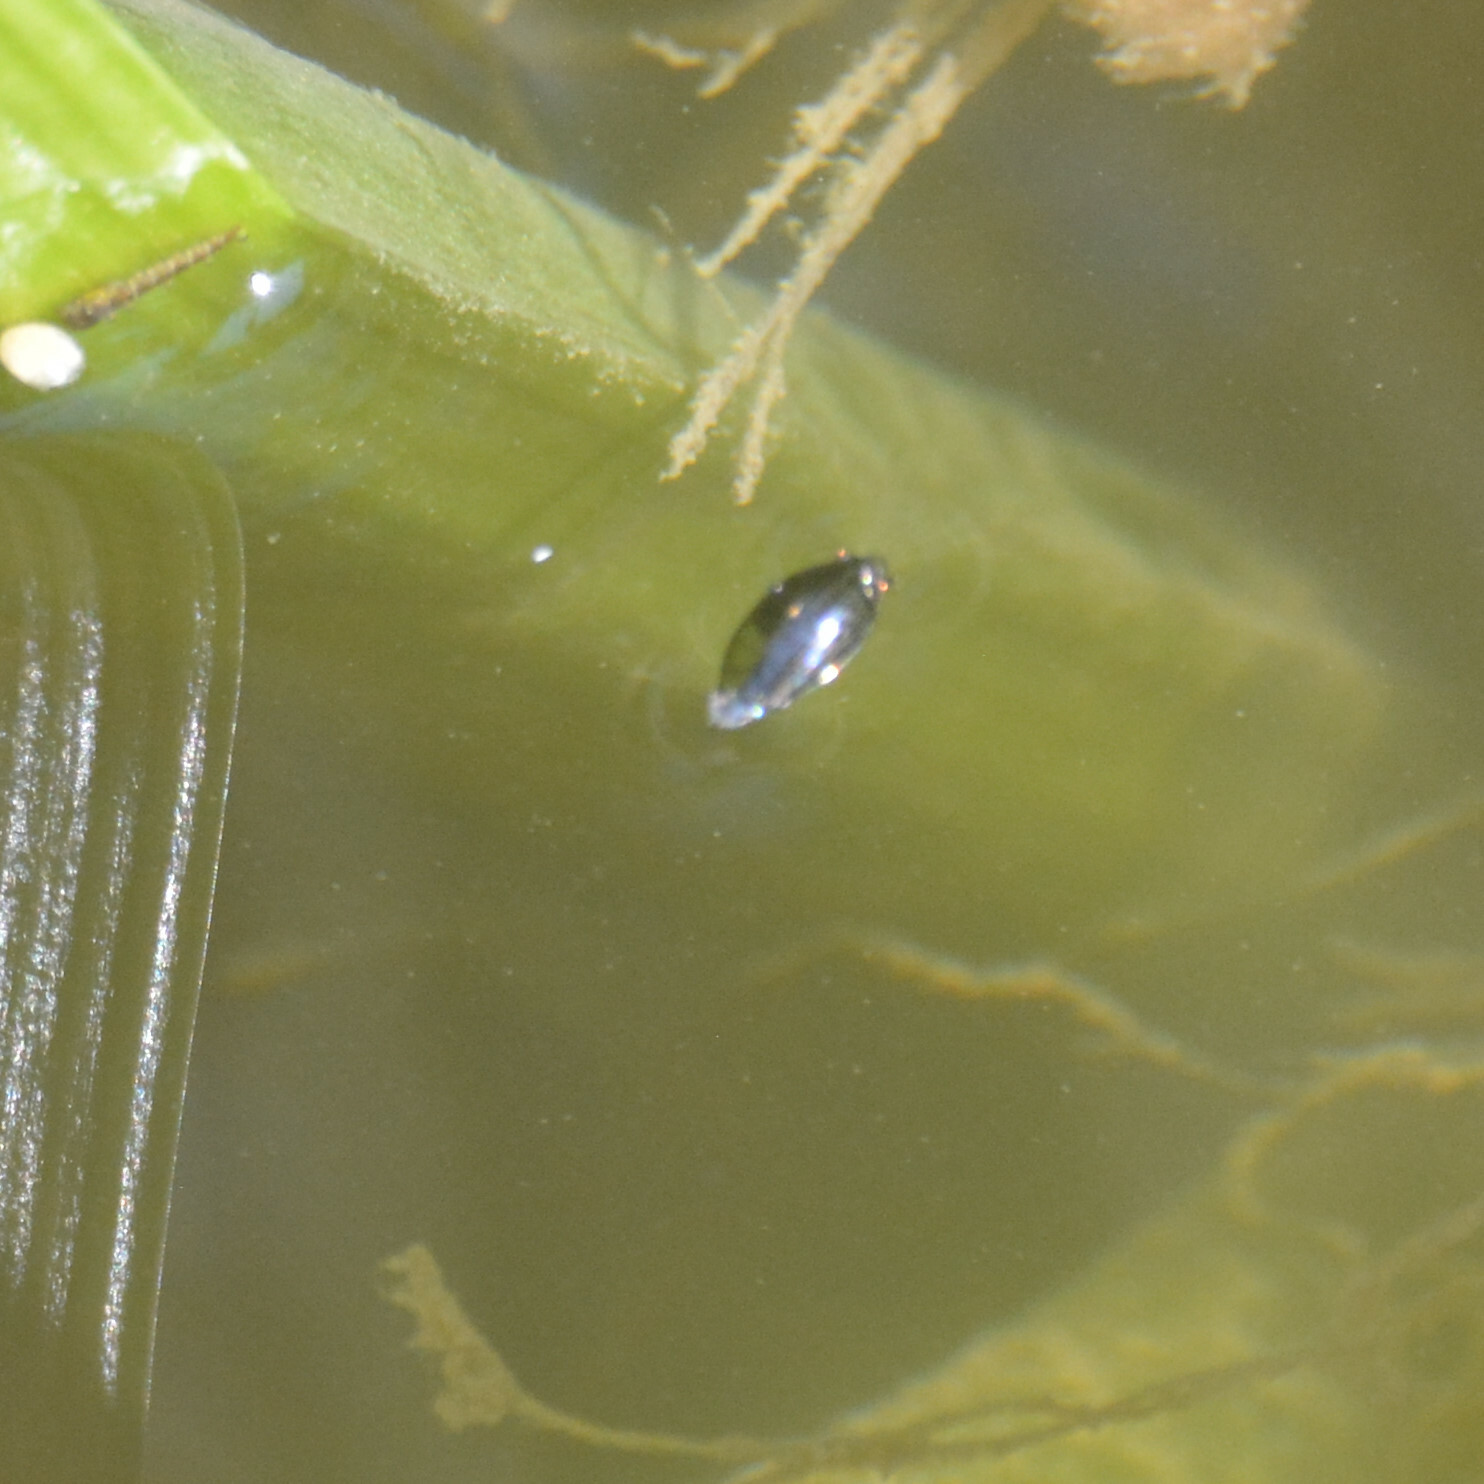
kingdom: Animalia
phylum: Arthropoda
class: Insecta
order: Coleoptera
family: Gyrinidae
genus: Gyrinus
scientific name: Gyrinus
